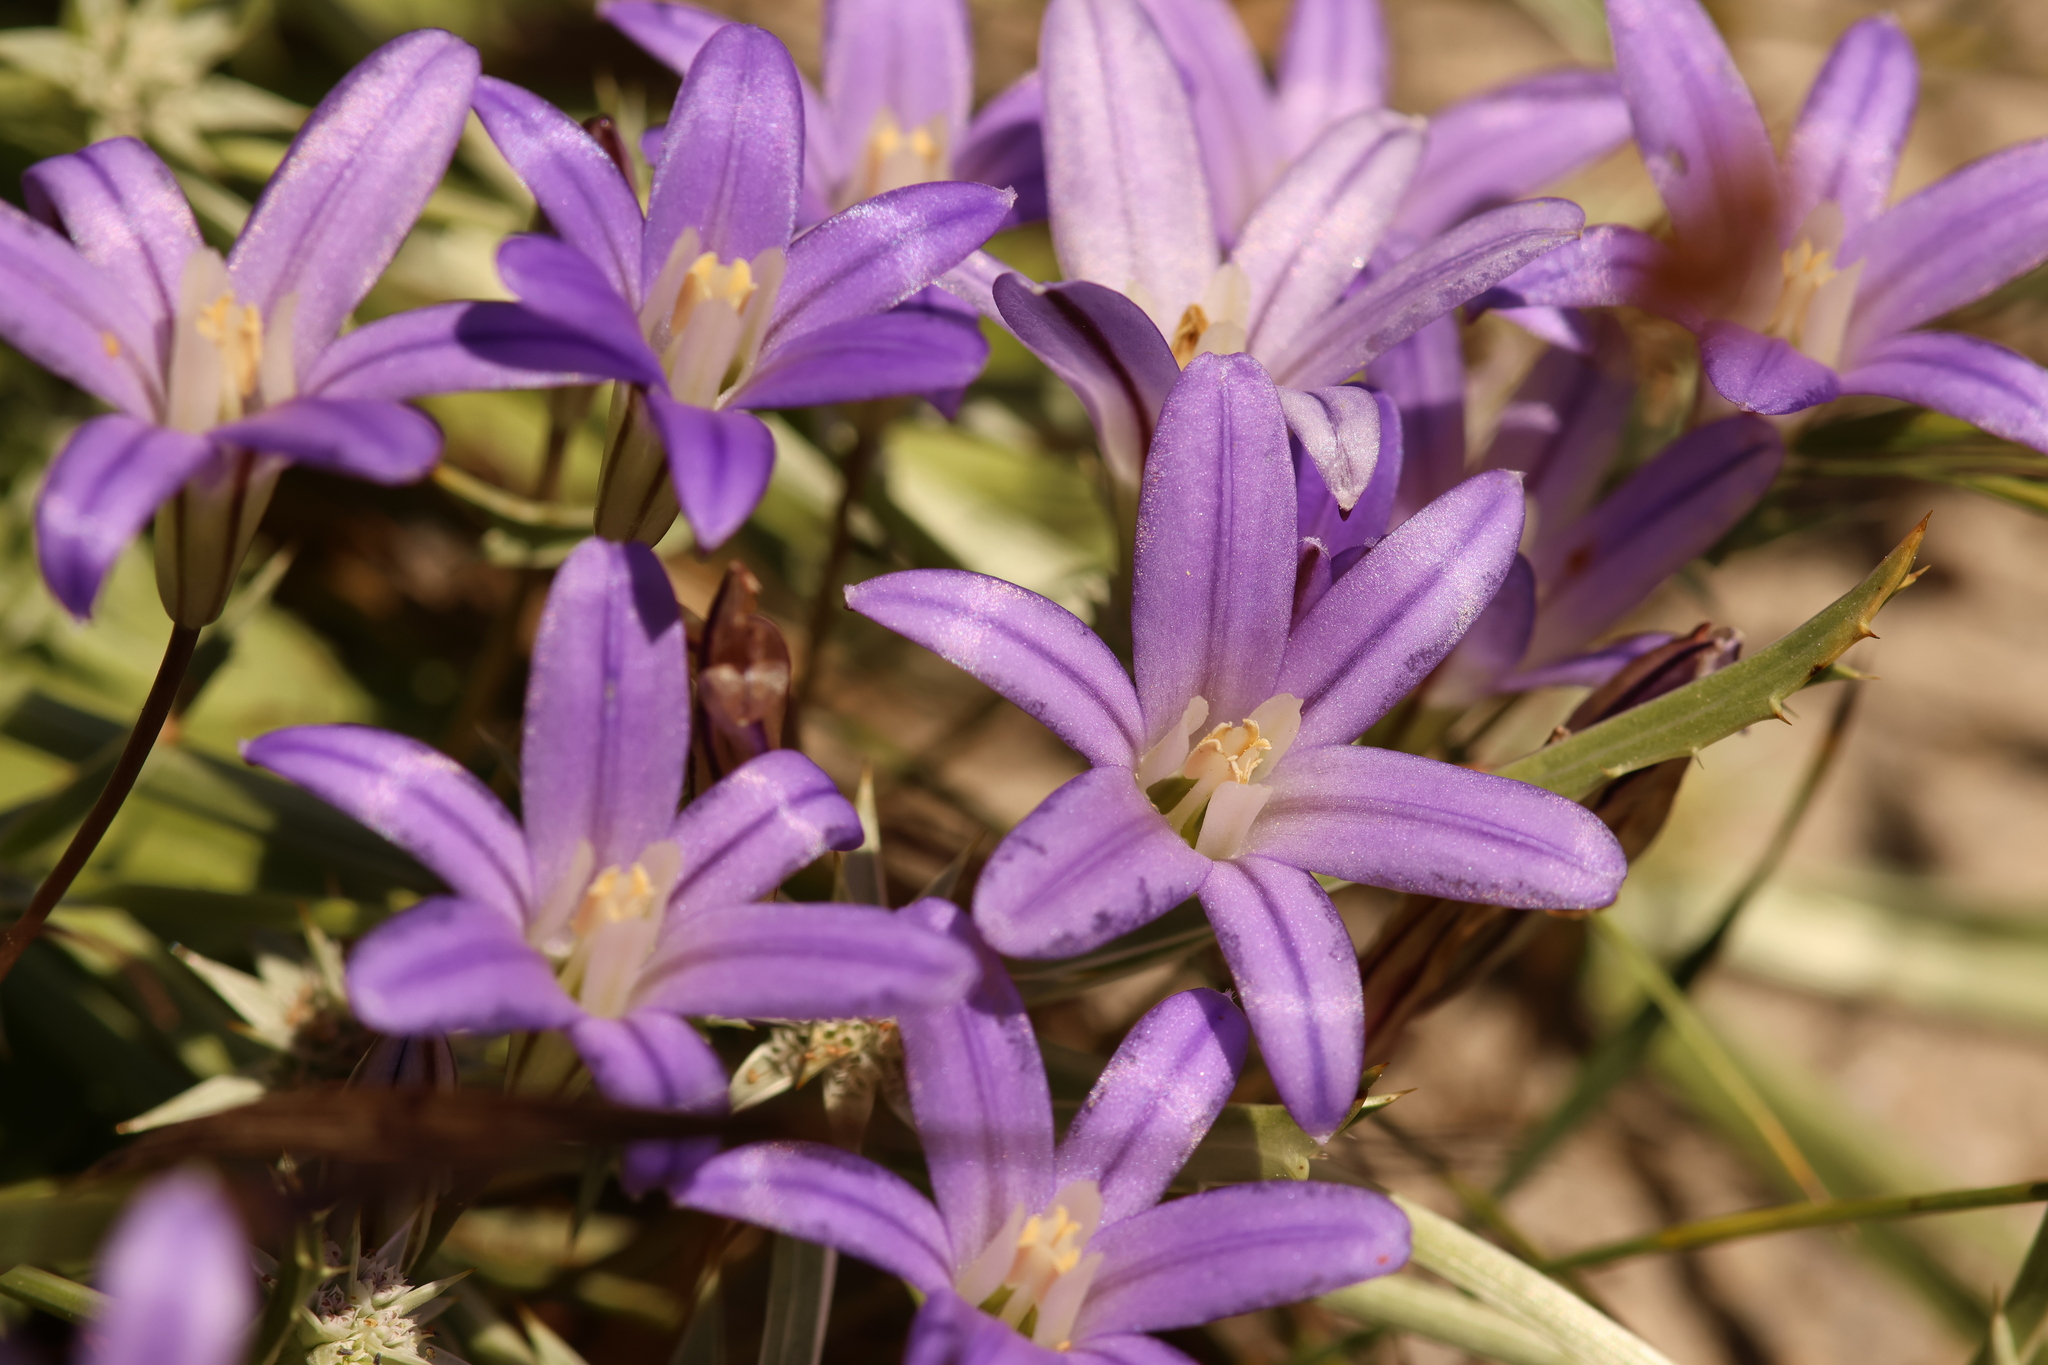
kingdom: Plantae
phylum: Tracheophyta
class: Liliopsida
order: Asparagales
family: Asparagaceae
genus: Brodiaea
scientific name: Brodiaea terrestris
